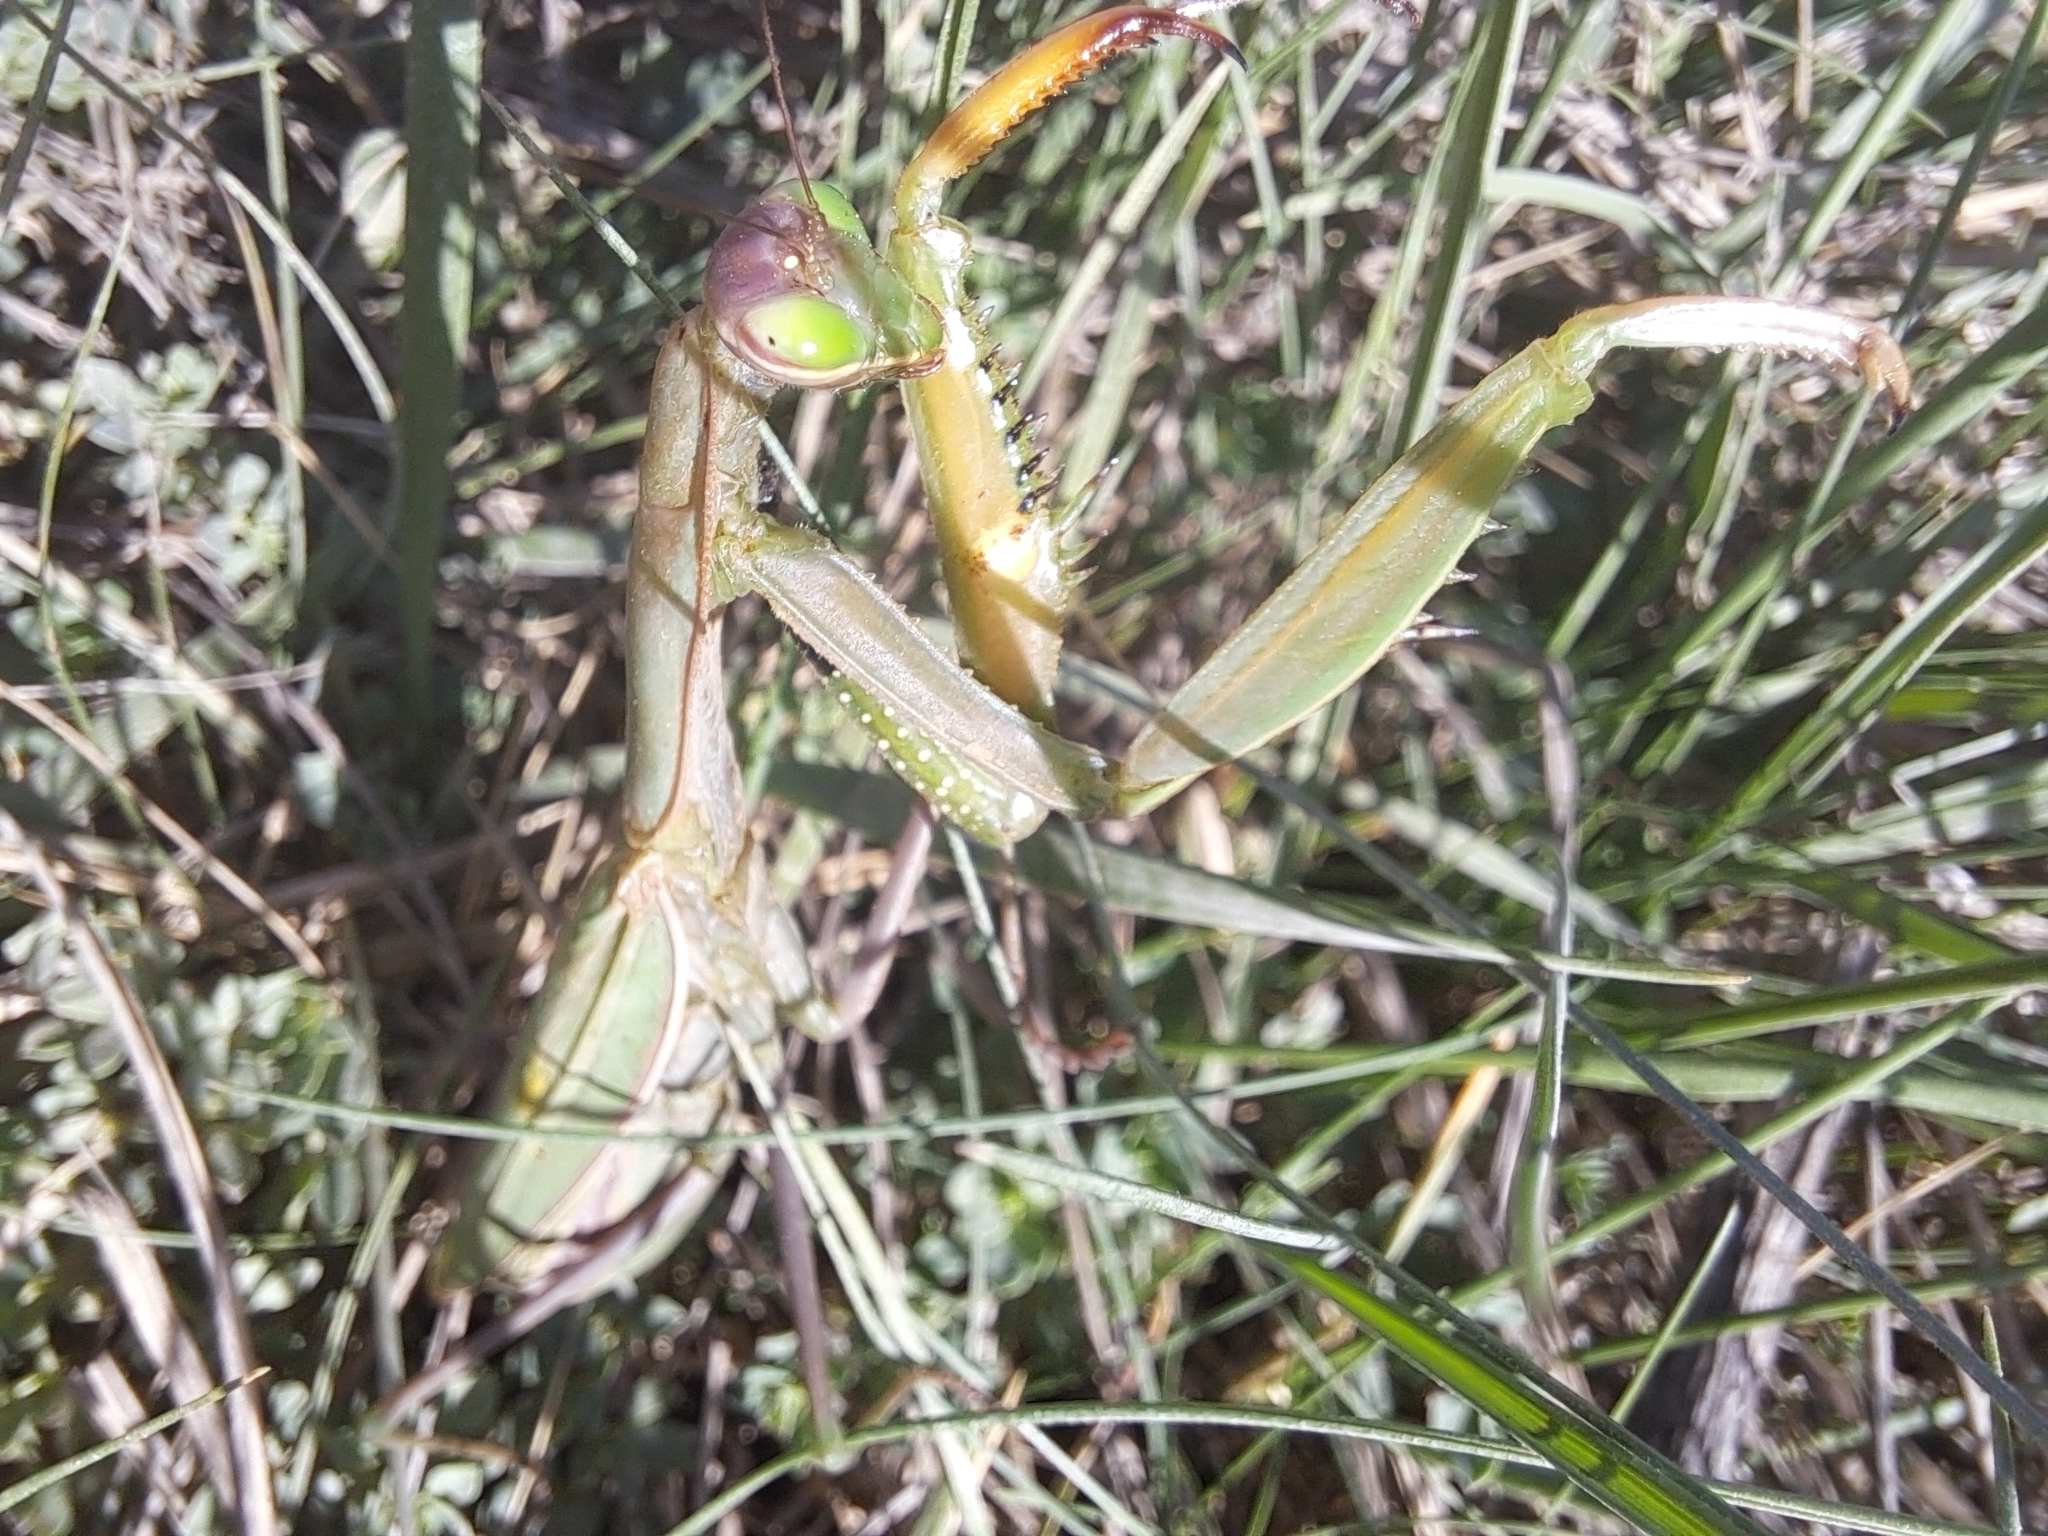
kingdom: Animalia
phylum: Arthropoda
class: Insecta
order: Mantodea
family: Mantidae
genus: Mantis
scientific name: Mantis religiosa
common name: Praying mantis
